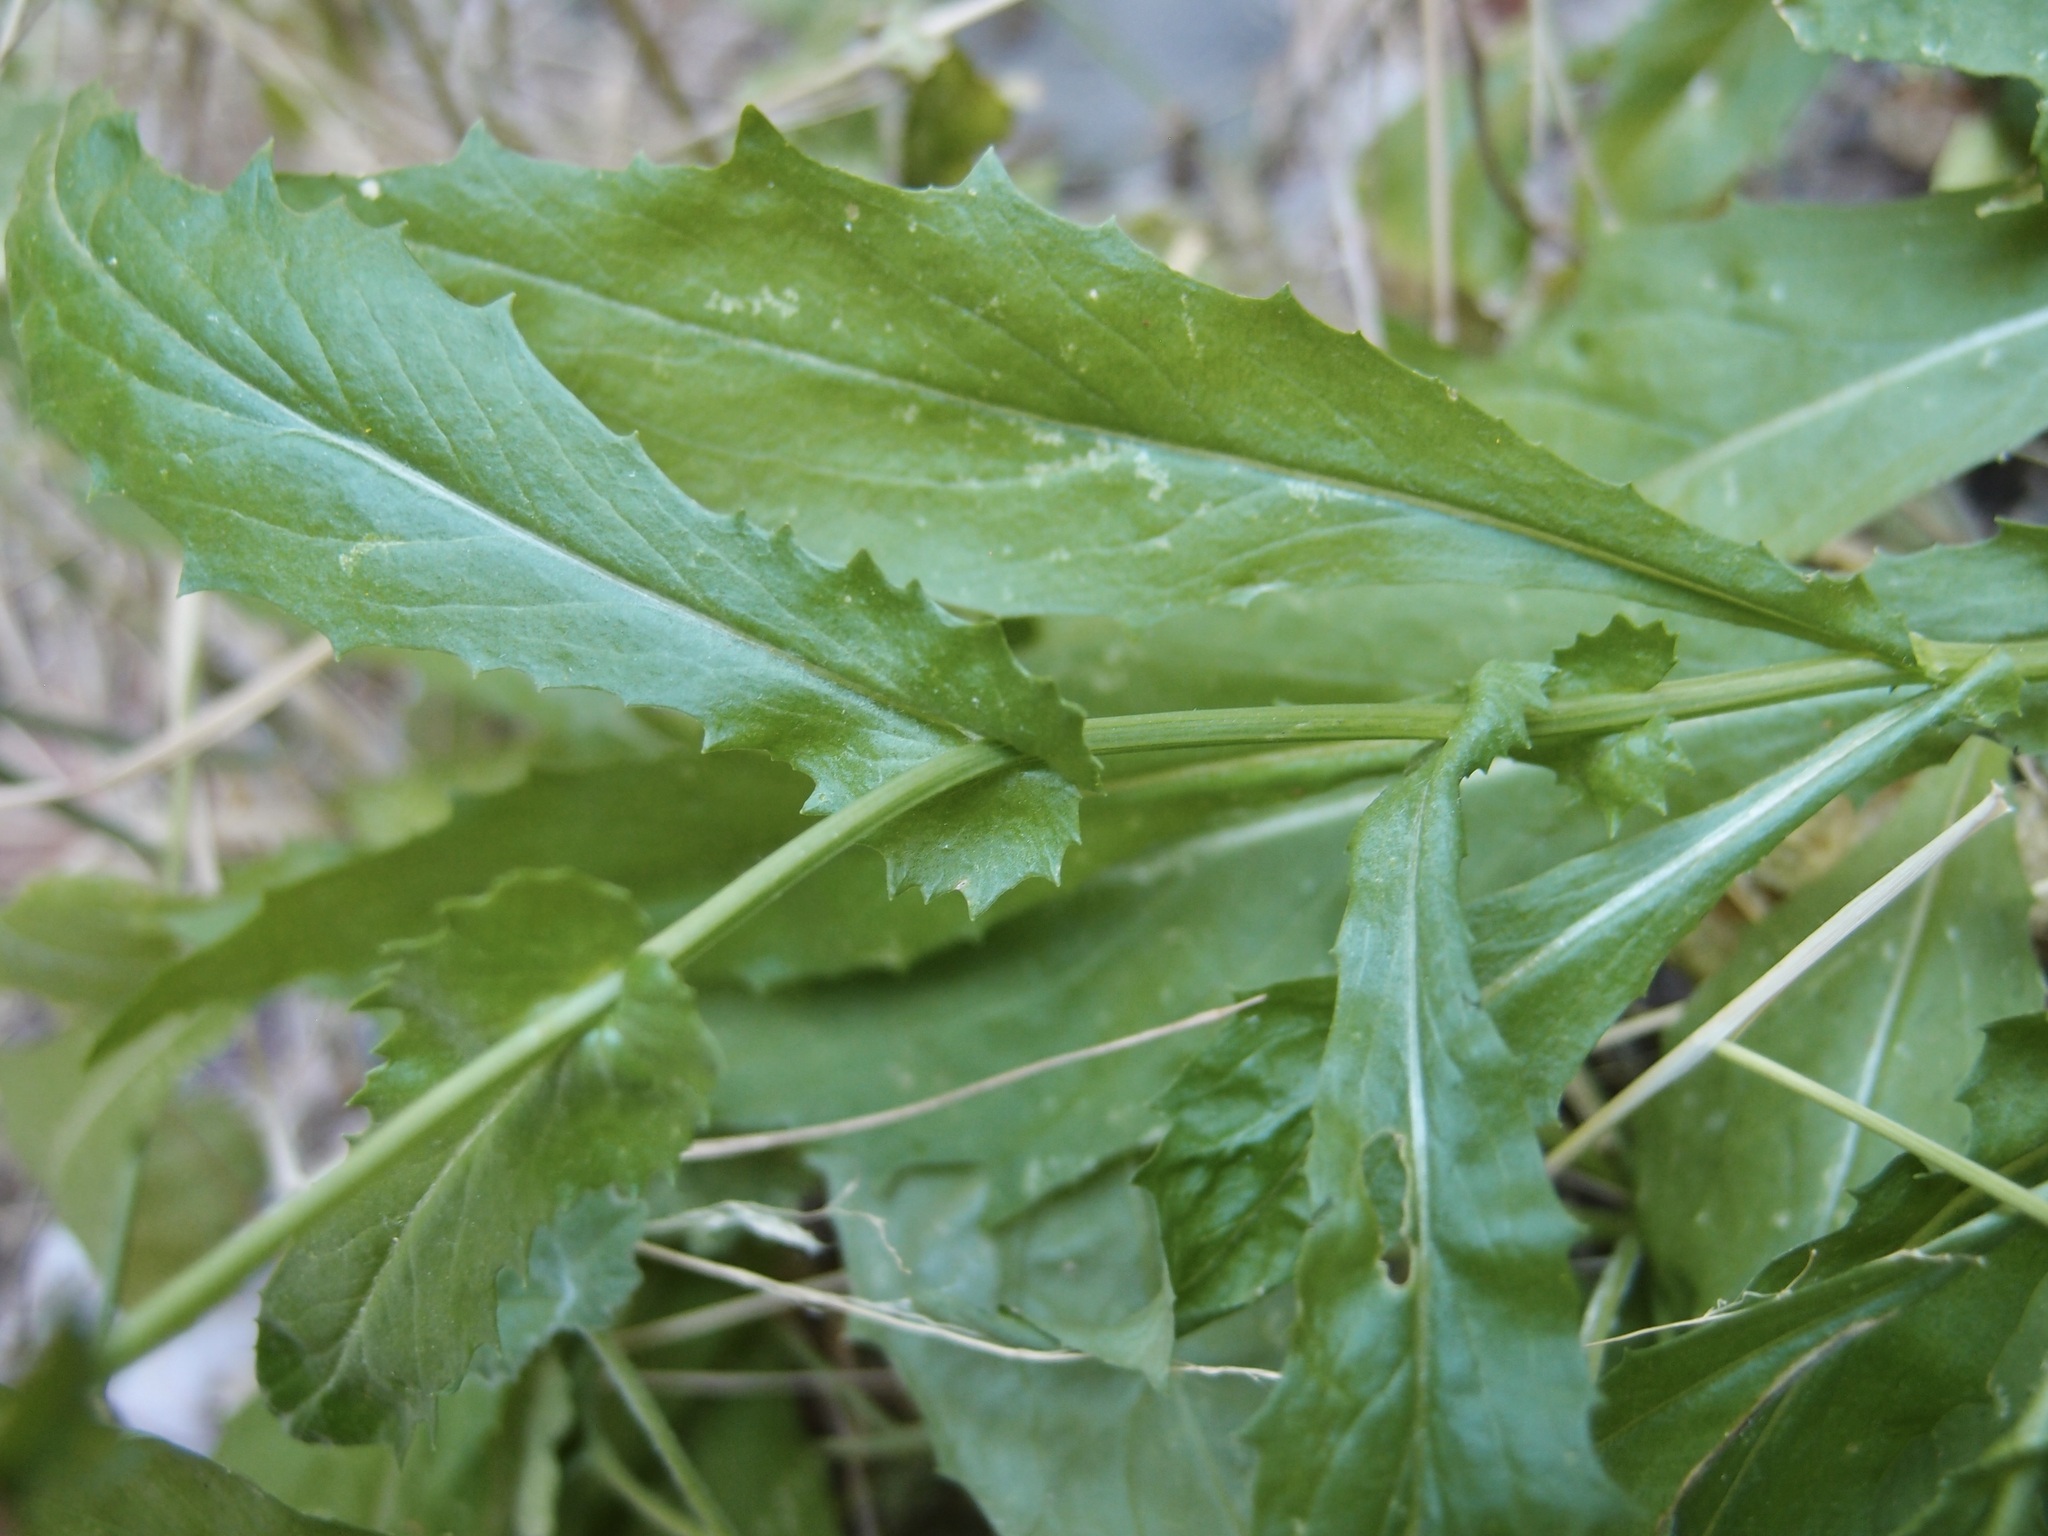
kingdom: Plantae
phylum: Tracheophyta
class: Magnoliopsida
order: Asterales
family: Asteraceae
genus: Senecio
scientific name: Senecio lemmonii
